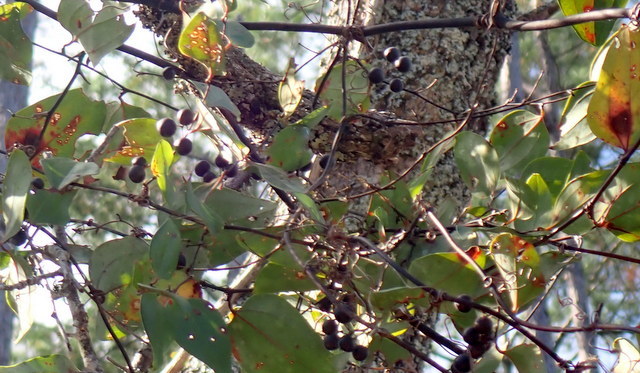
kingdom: Plantae
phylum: Tracheophyta
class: Liliopsida
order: Liliales
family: Smilacaceae
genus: Smilax
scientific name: Smilax glauca
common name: Cat greenbrier
